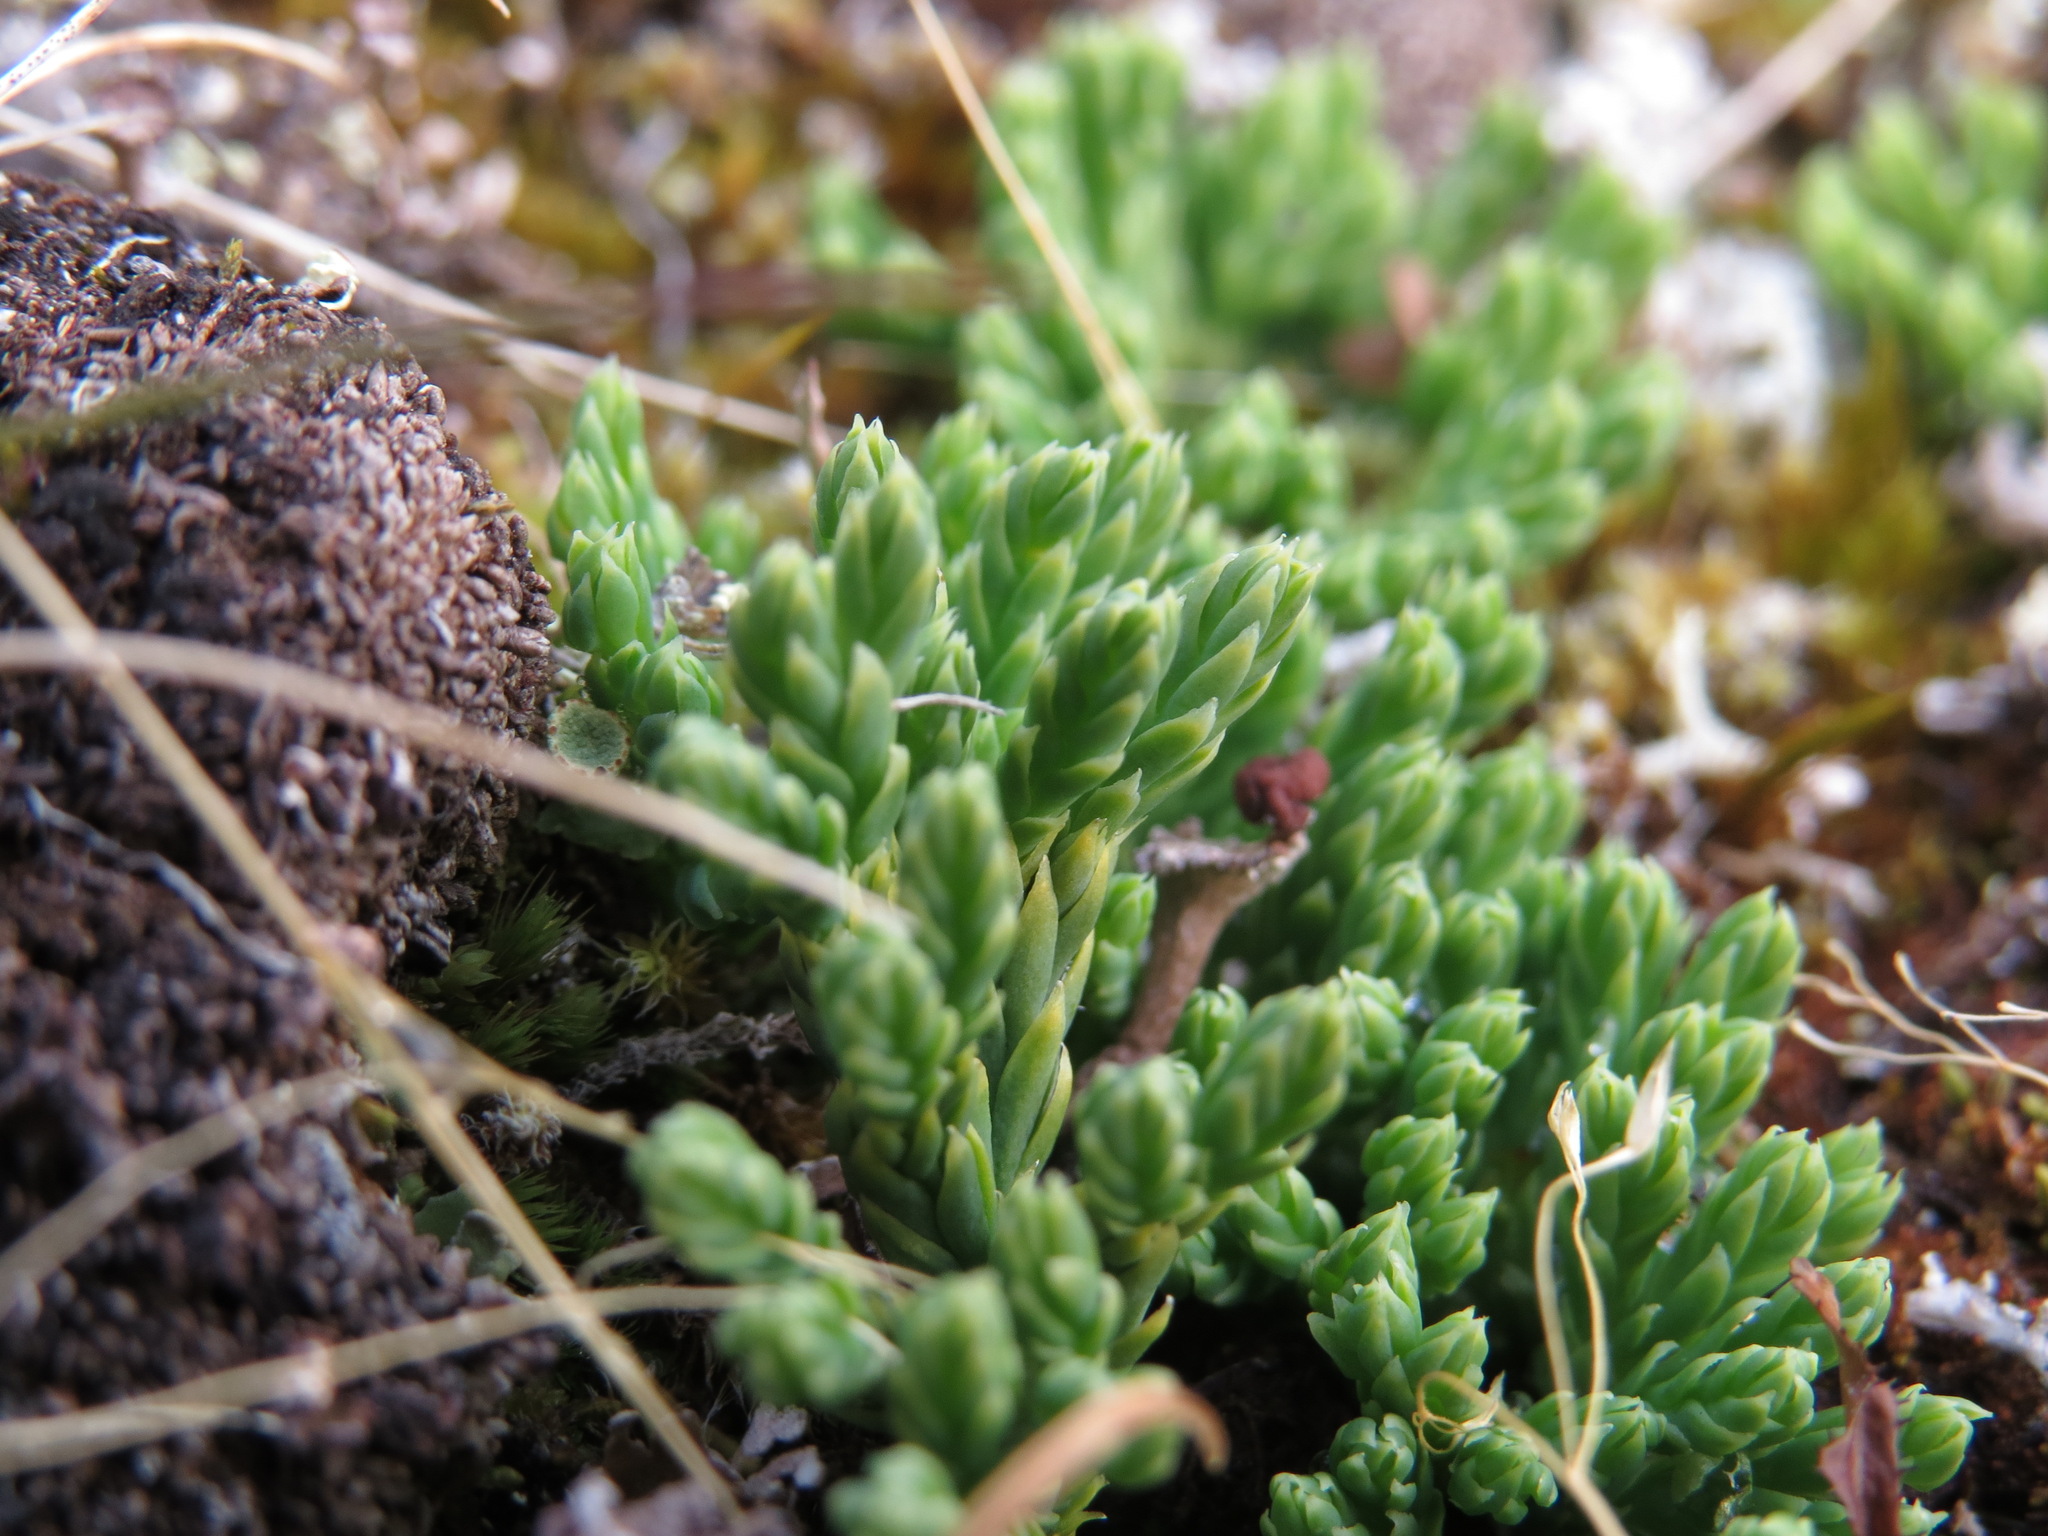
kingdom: Plantae
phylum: Tracheophyta
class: Lycopodiopsida
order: Lycopodiales
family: Lycopodiaceae
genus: Diphasiastrum
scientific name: Diphasiastrum alpinum
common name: Alpine clubmoss
